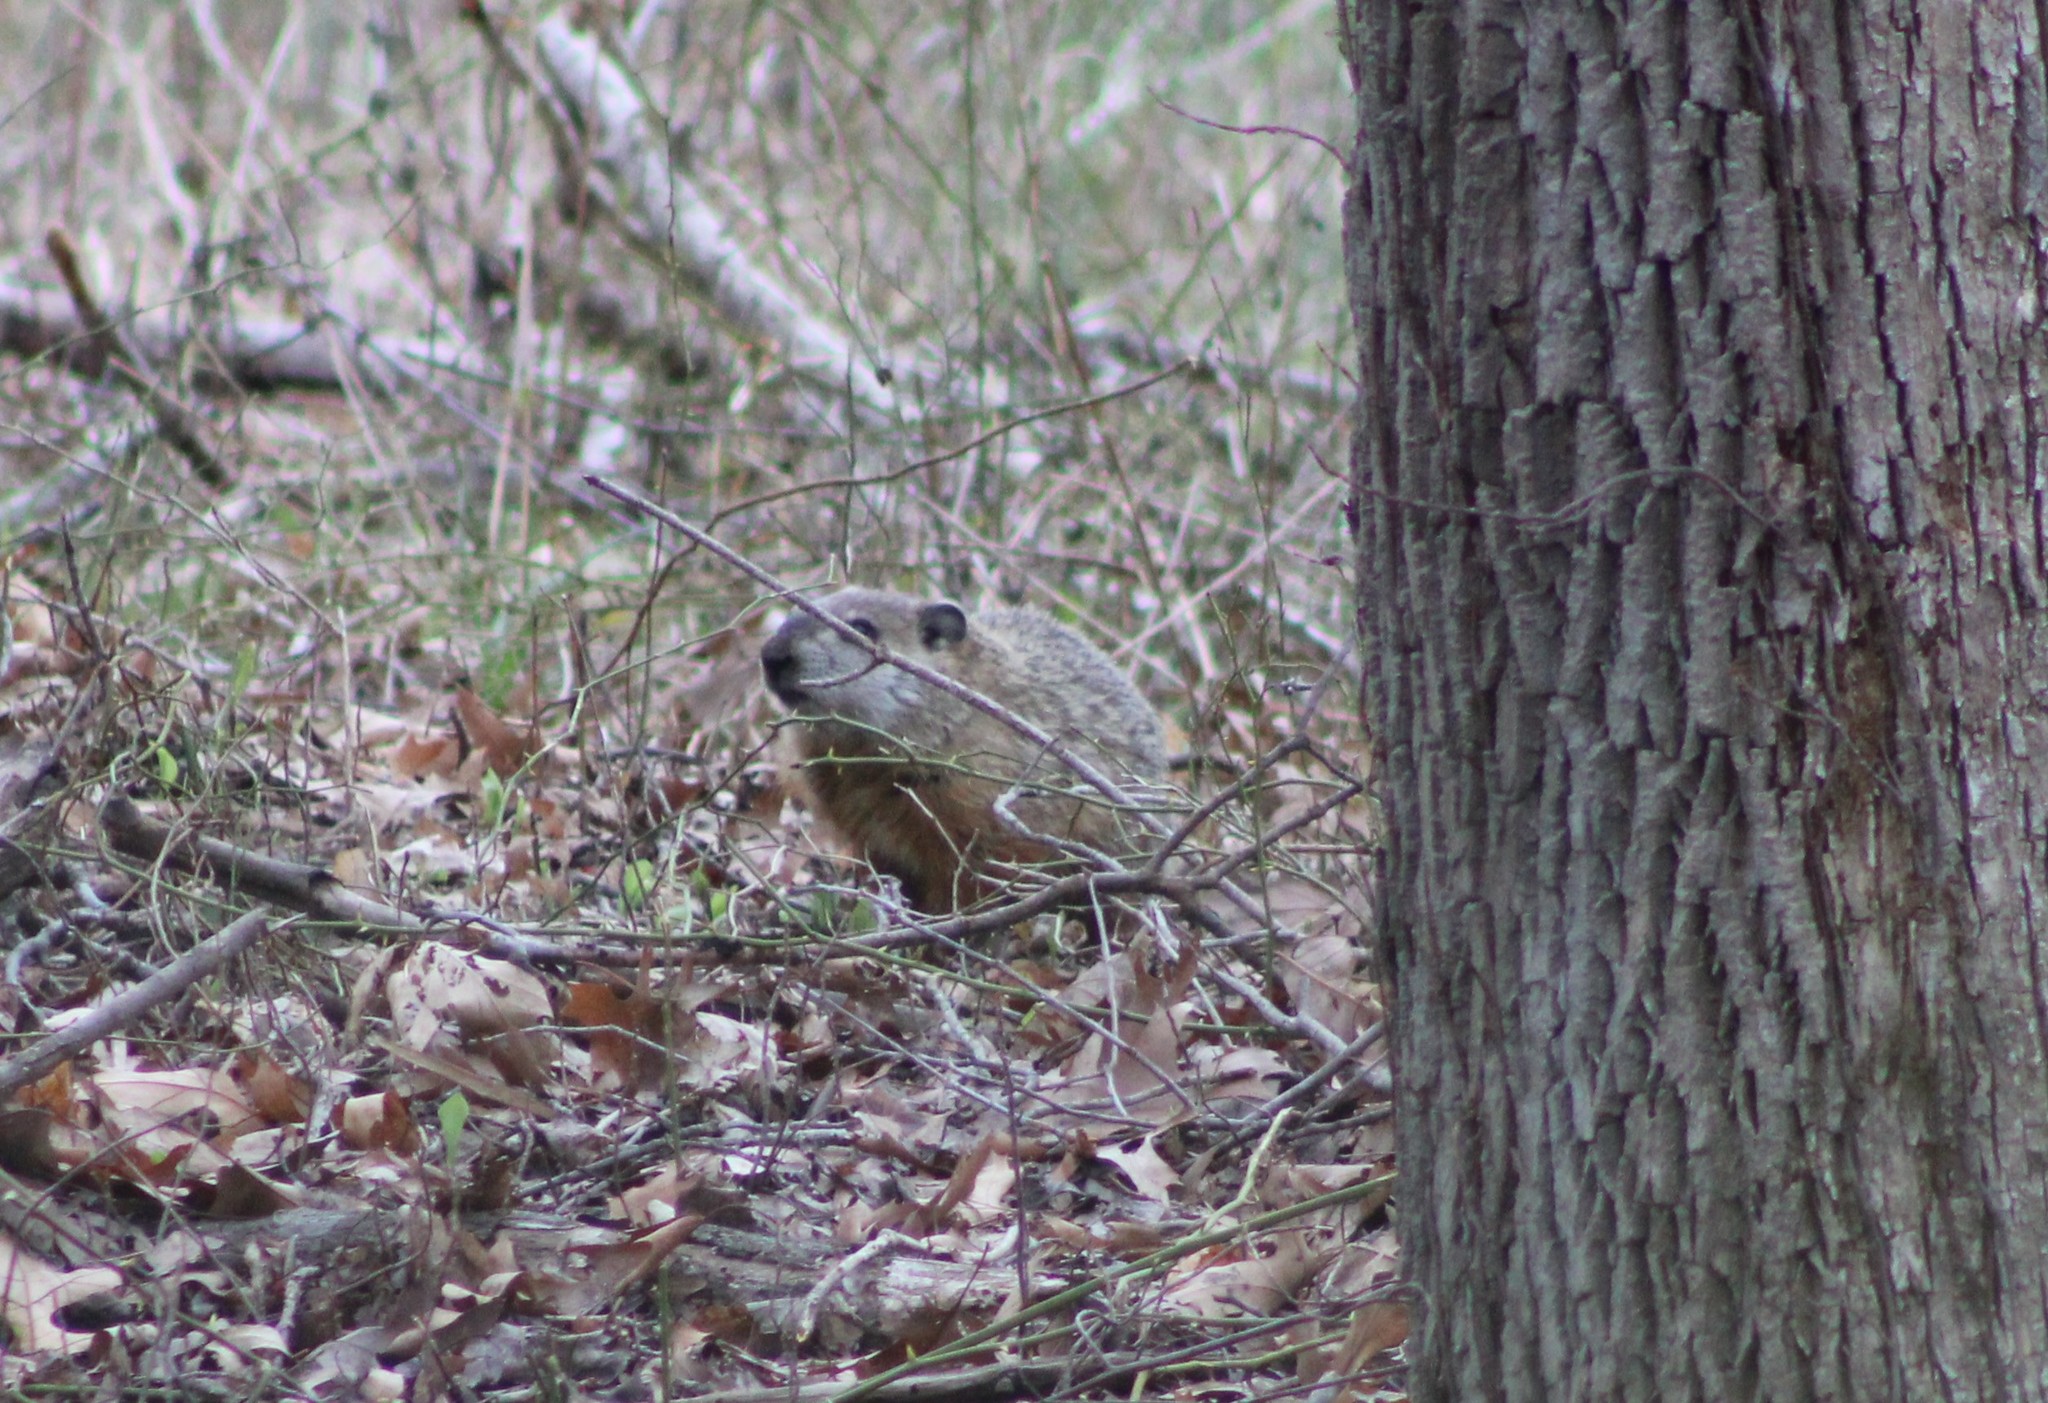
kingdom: Animalia
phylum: Chordata
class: Mammalia
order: Rodentia
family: Sciuridae
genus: Marmota
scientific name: Marmota monax
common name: Groundhog
